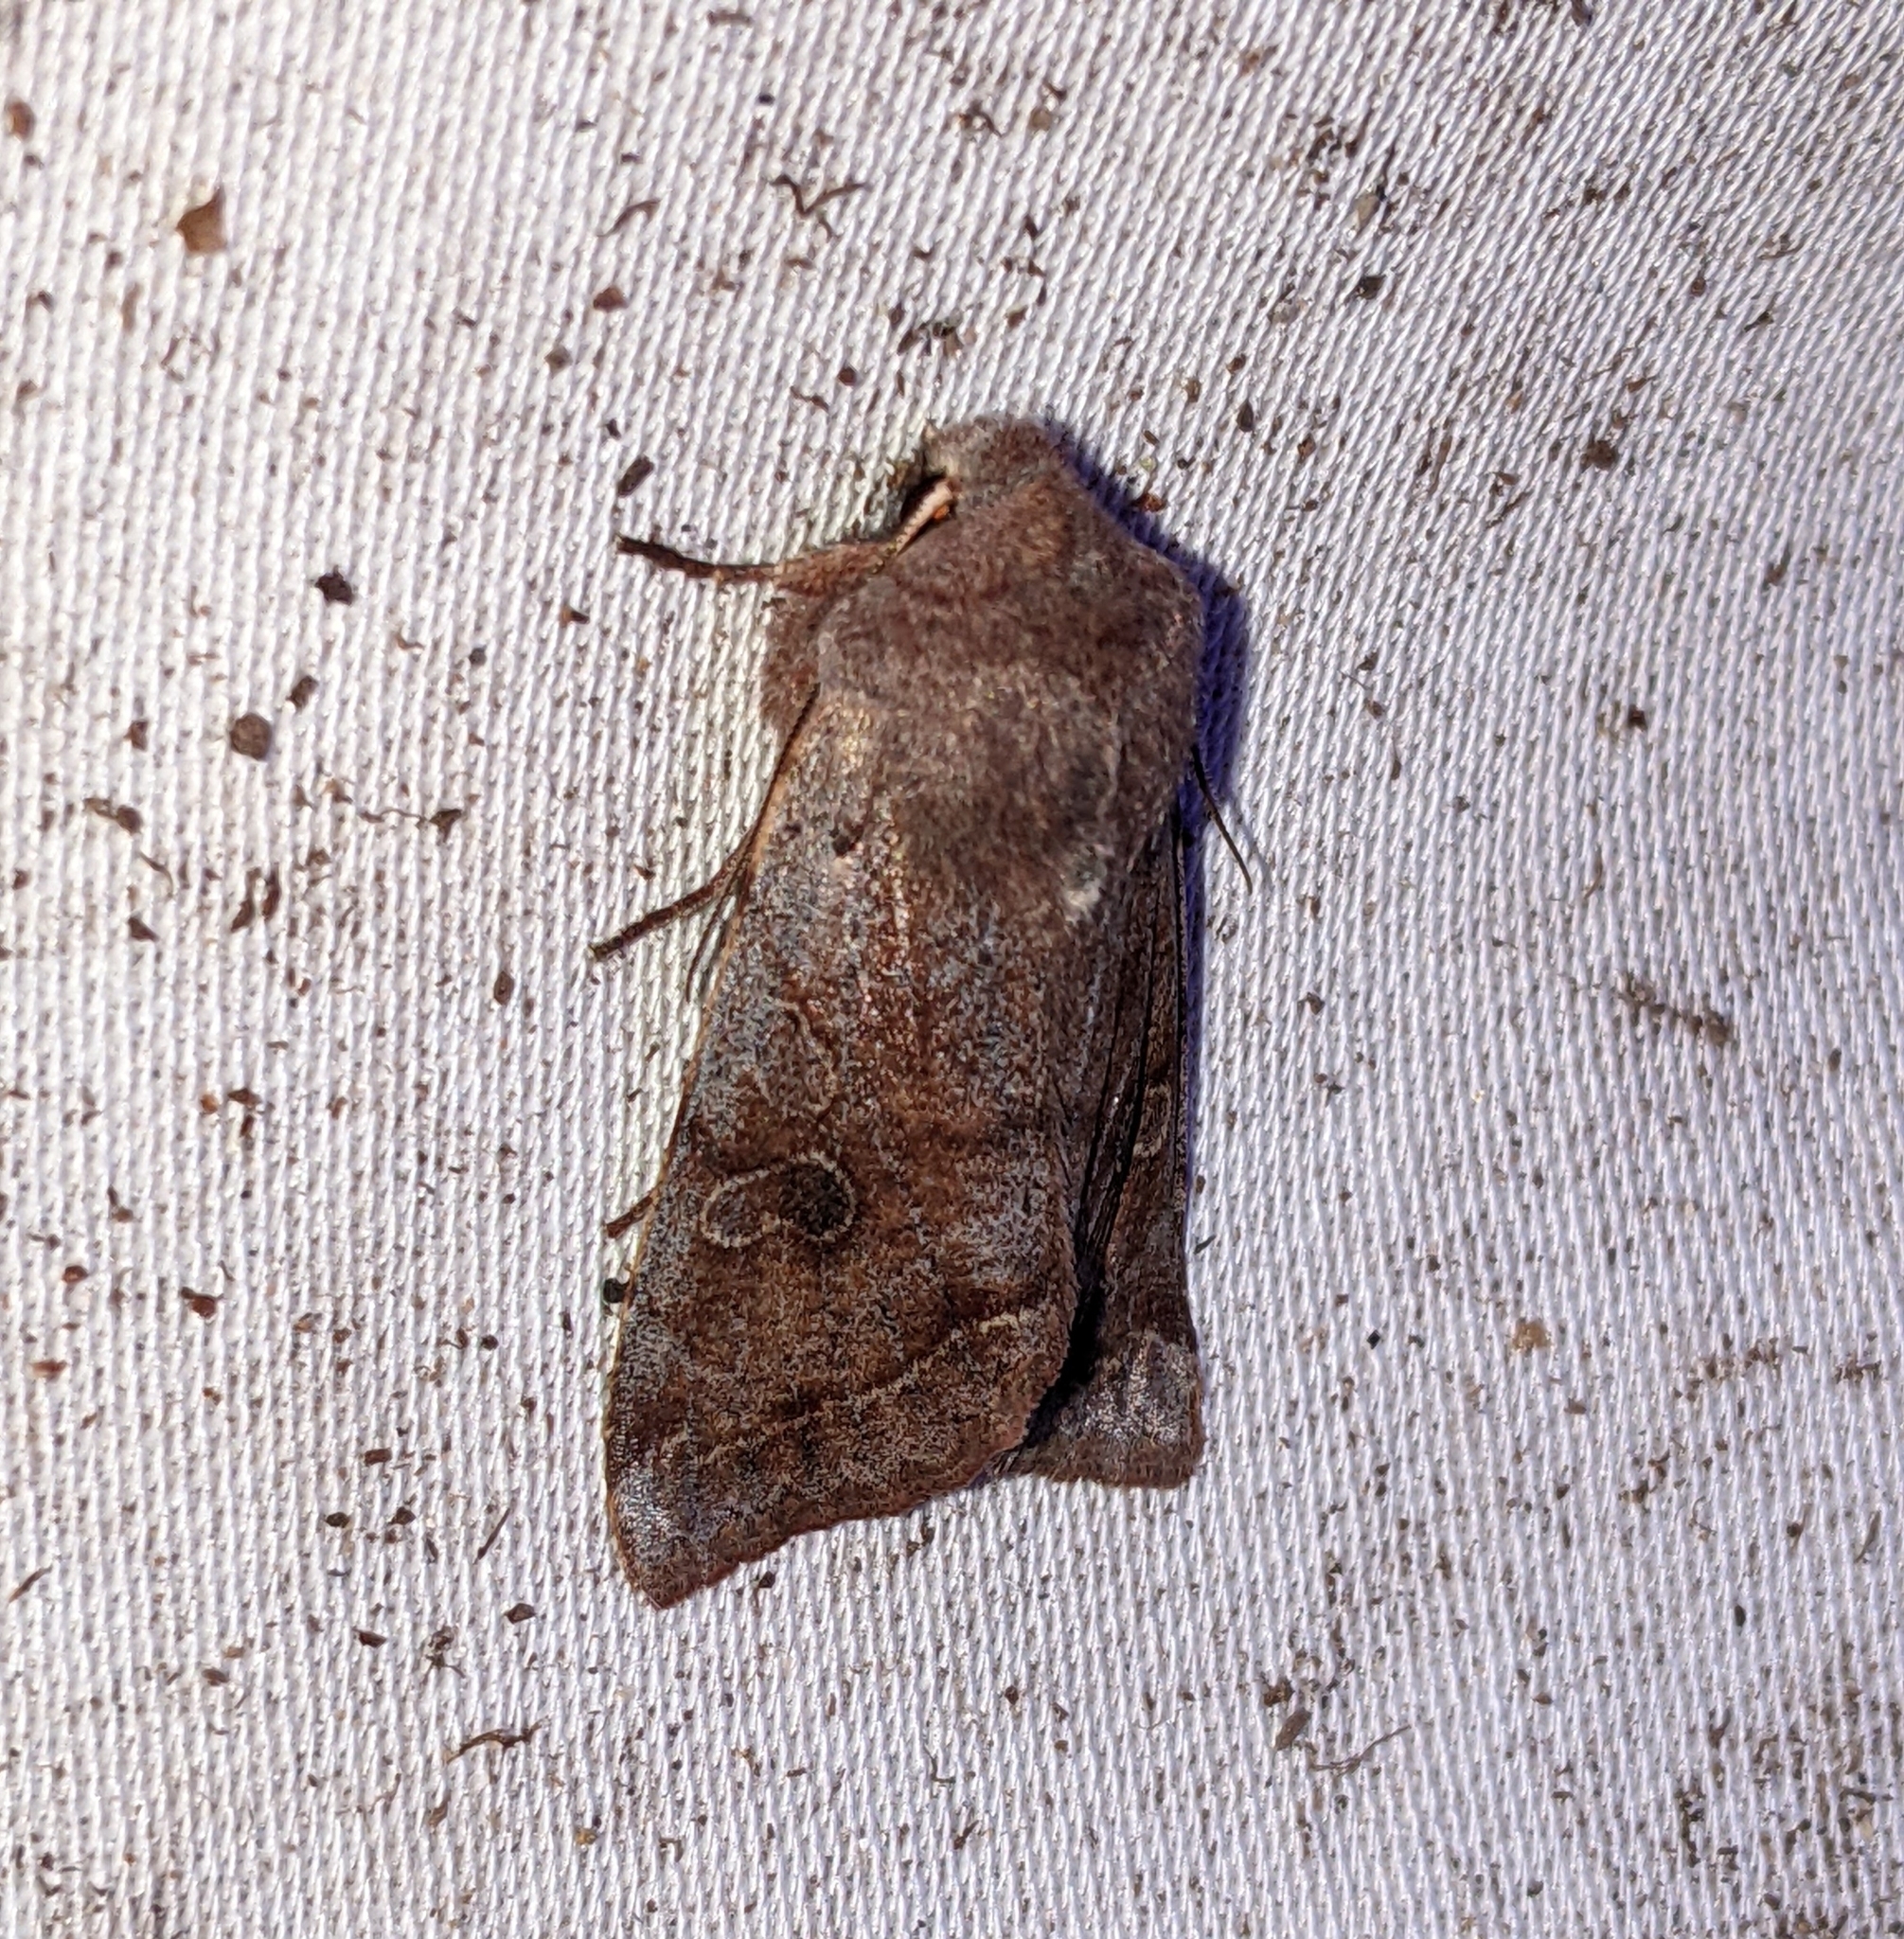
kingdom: Animalia
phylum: Arthropoda
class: Insecta
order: Lepidoptera
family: Noctuidae
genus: Orthosia
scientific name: Orthosia hibisci
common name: Green fruitworm
